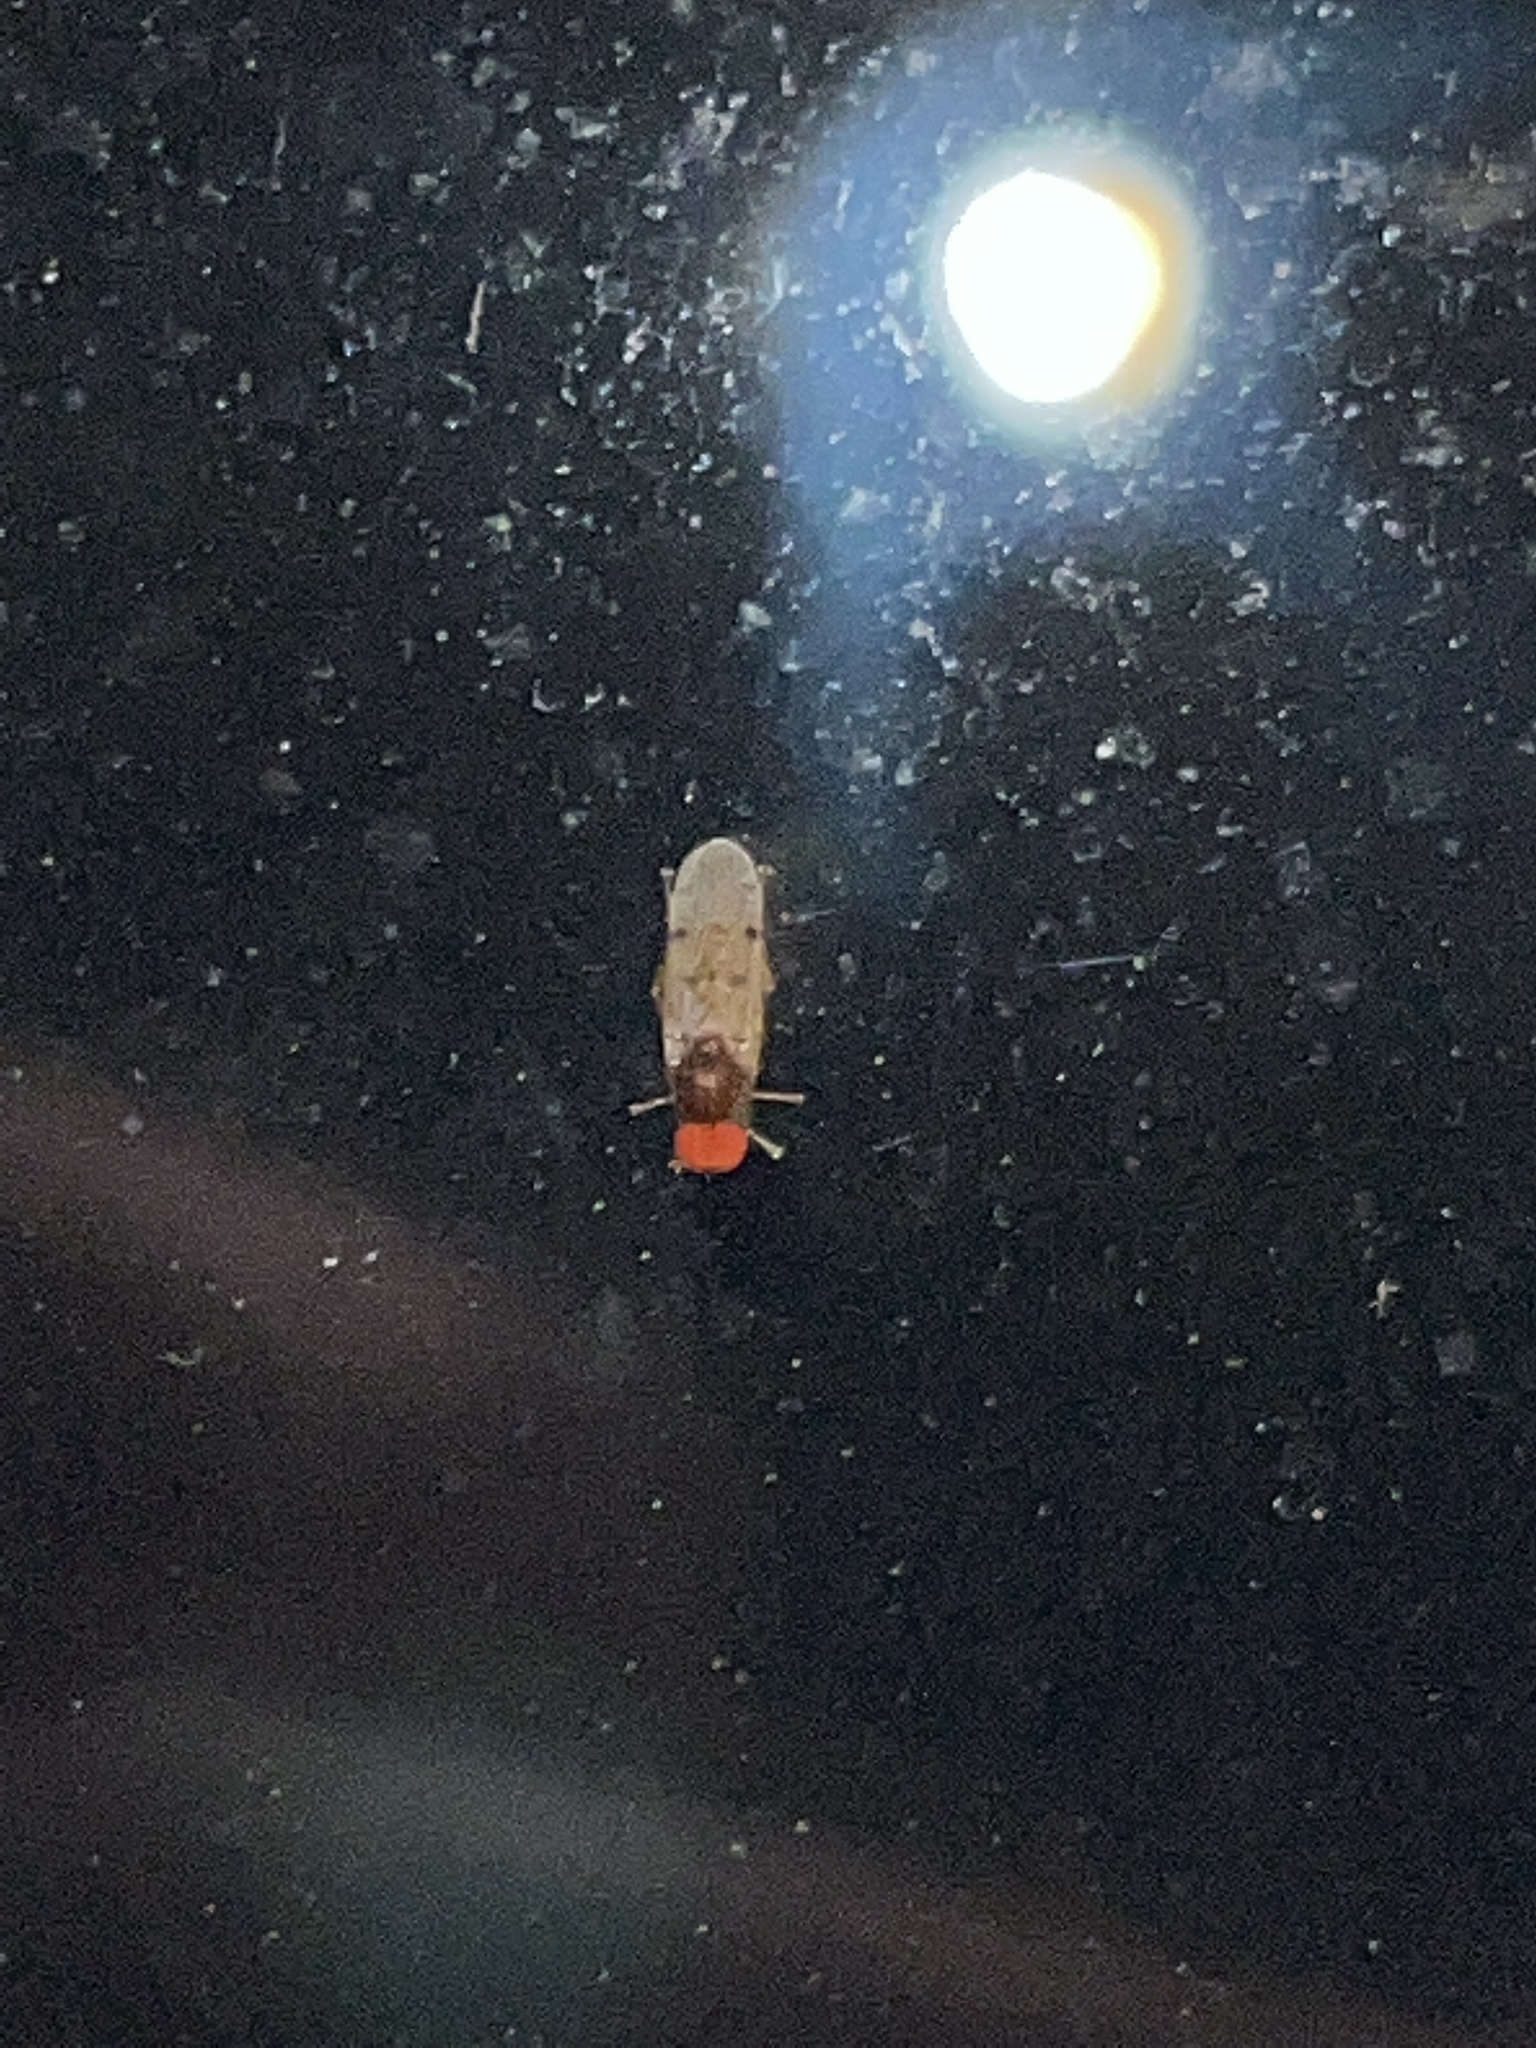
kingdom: Animalia
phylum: Arthropoda
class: Insecta
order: Diptera
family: Hybotidae
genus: Syneches
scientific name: Syneches simplex
